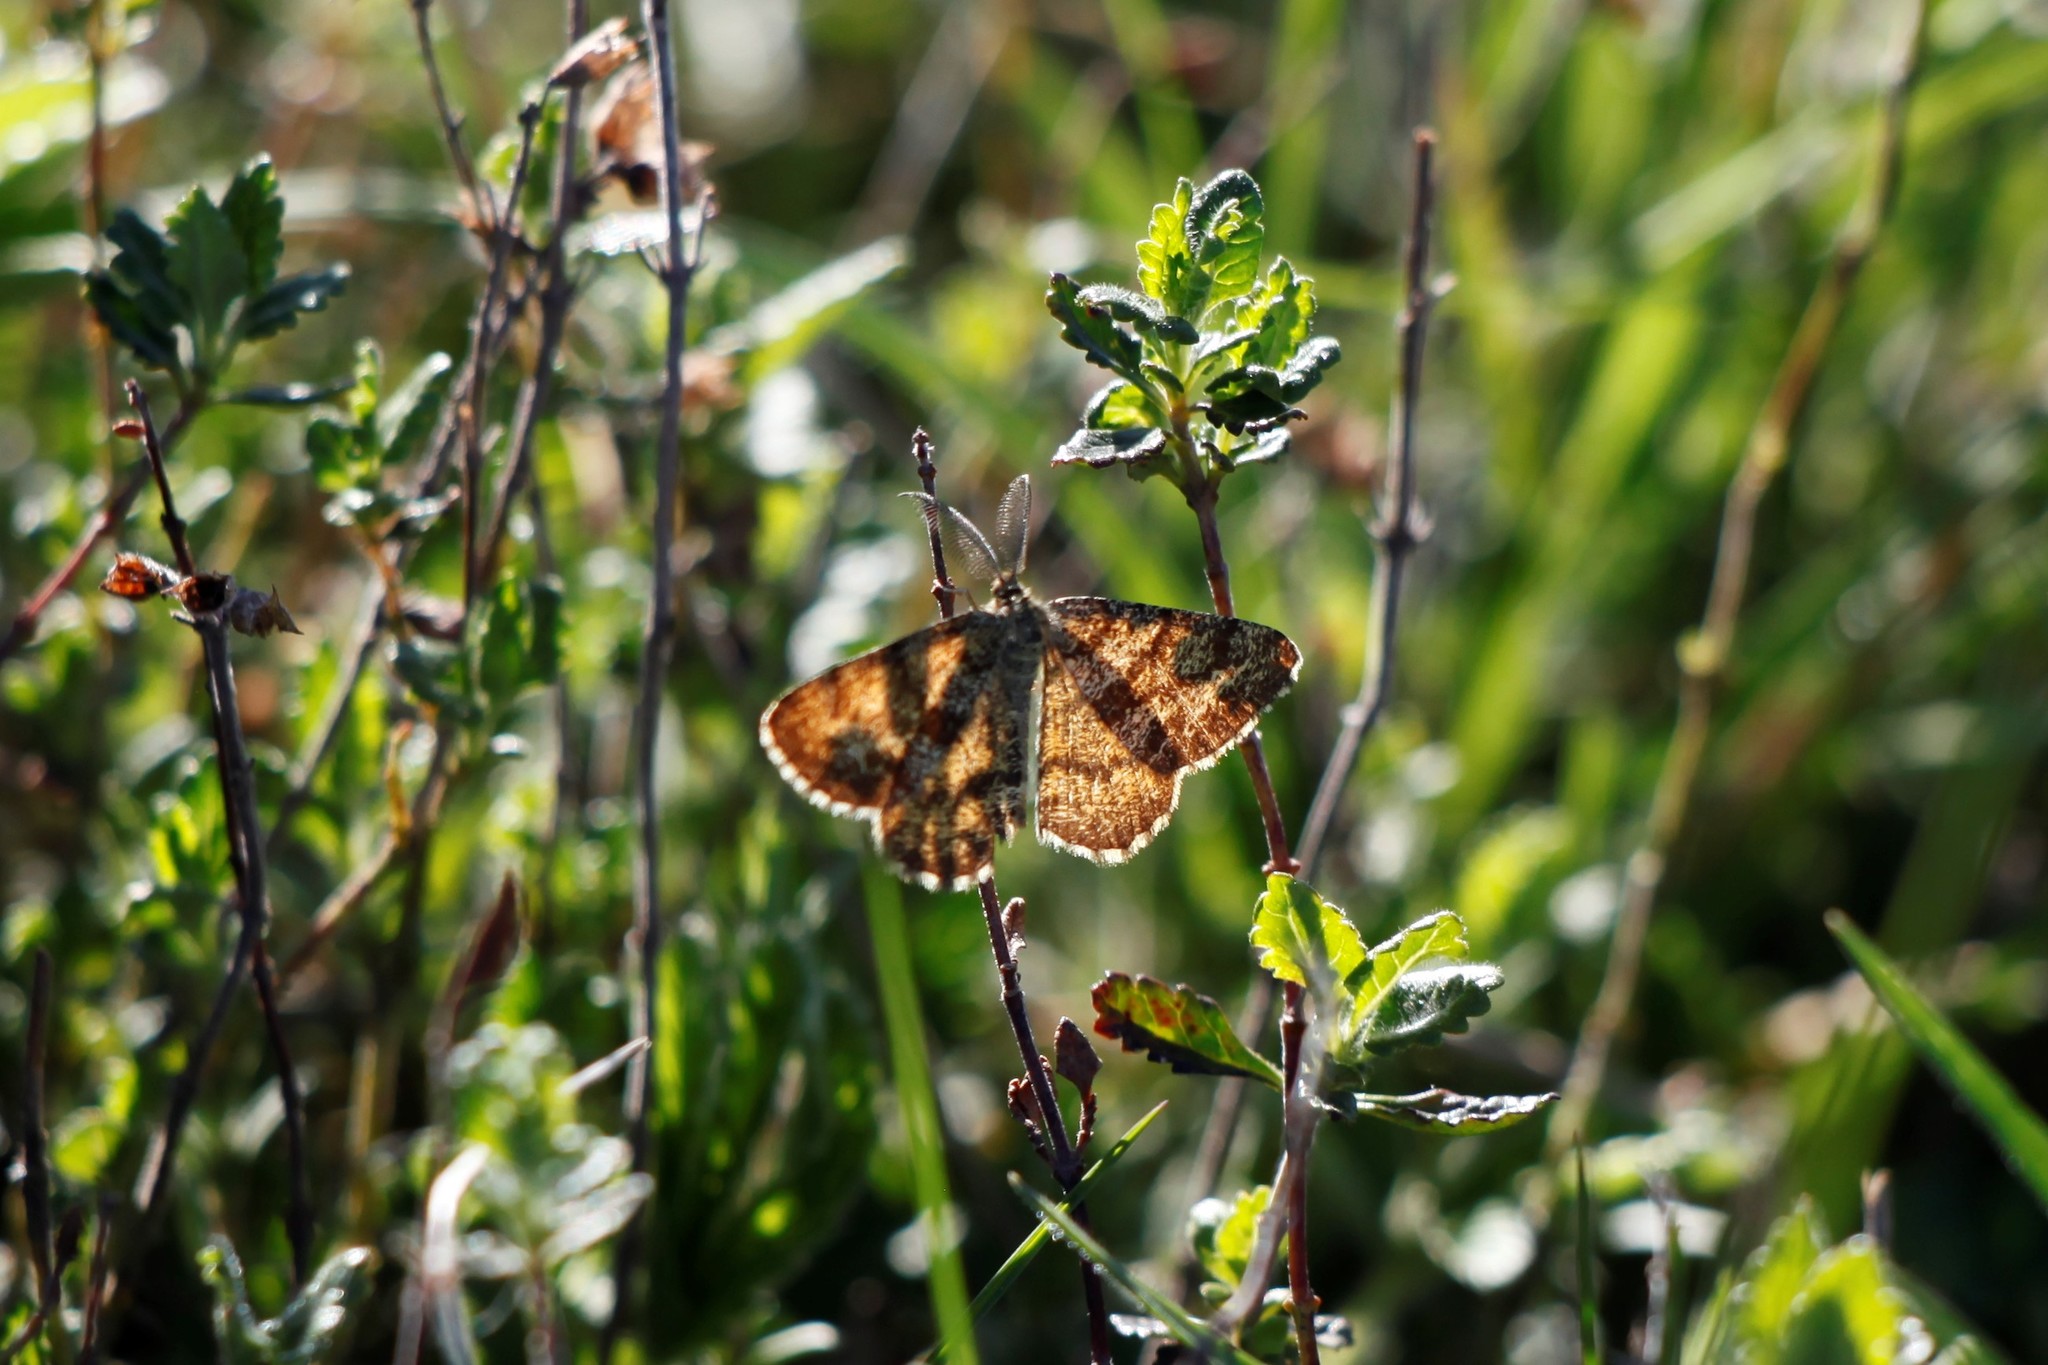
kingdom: Animalia
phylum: Arthropoda
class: Insecta
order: Lepidoptera
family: Geometridae
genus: Ematurga
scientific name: Ematurga atomaria
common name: Common heath
